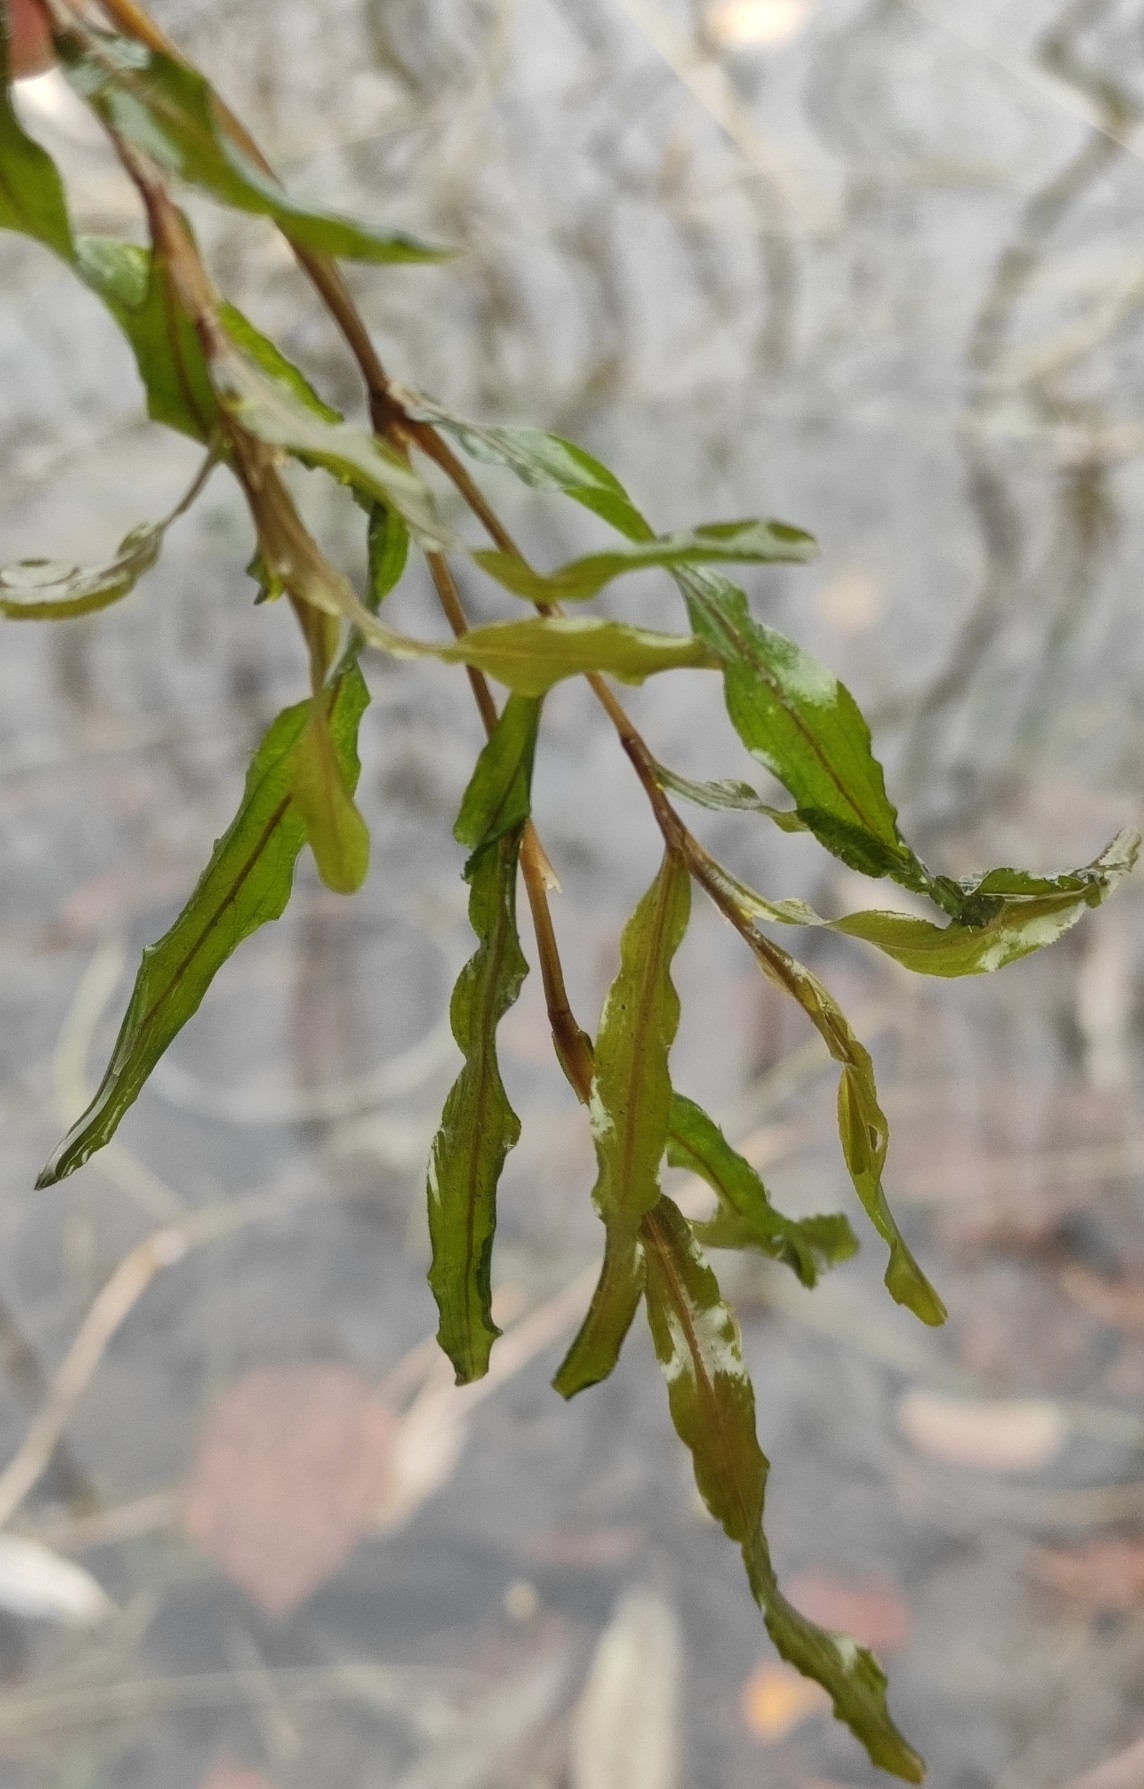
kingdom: Plantae
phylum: Tracheophyta
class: Liliopsida
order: Alismatales
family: Potamogetonaceae
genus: Potamogeton
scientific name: Potamogeton crispus
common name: Curled pondweed
